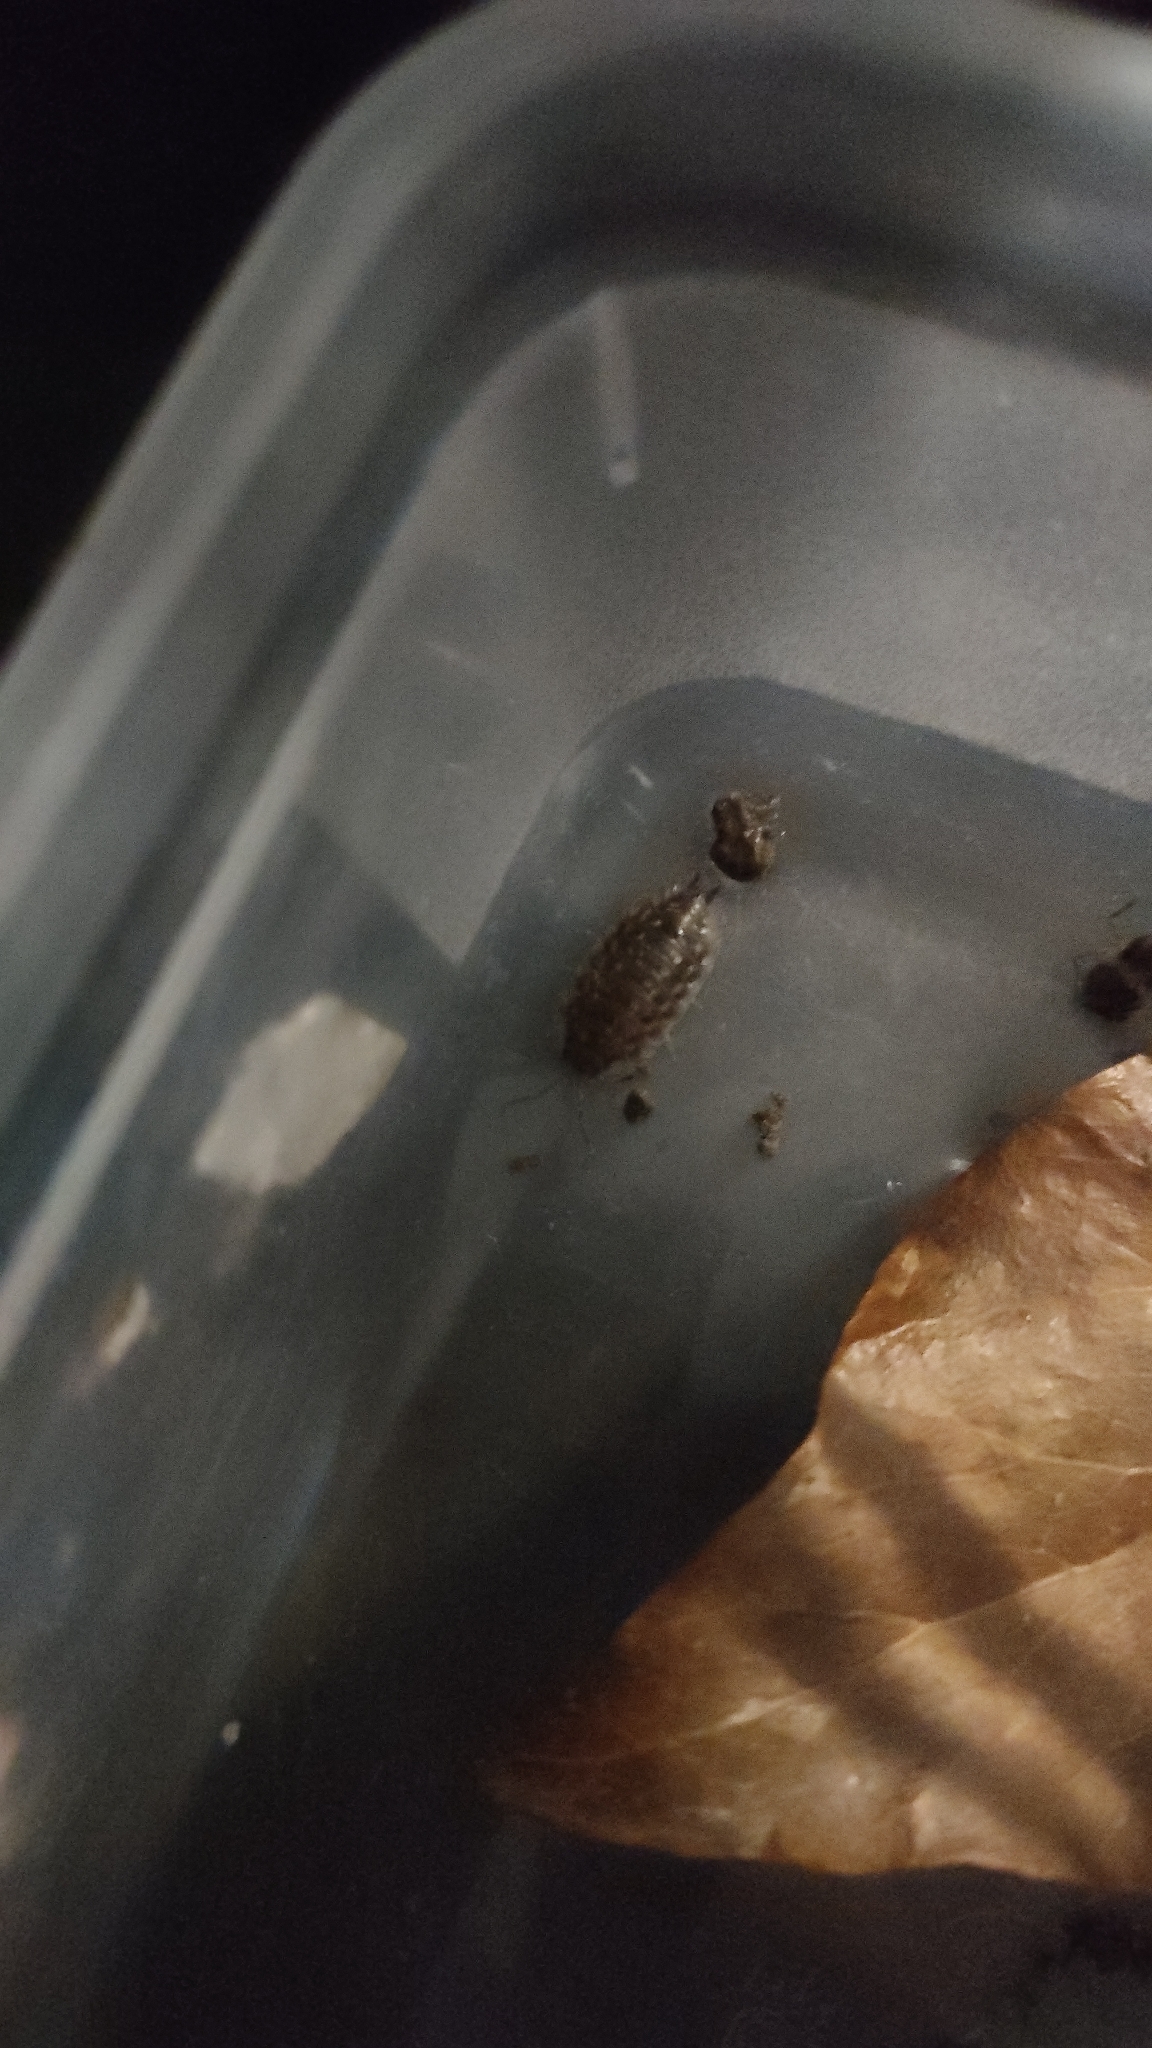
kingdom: Animalia
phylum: Arthropoda
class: Malacostraca
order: Isopoda
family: Oniscidae
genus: Oniscus
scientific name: Oniscus asellus
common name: Common shiny woodlouse
